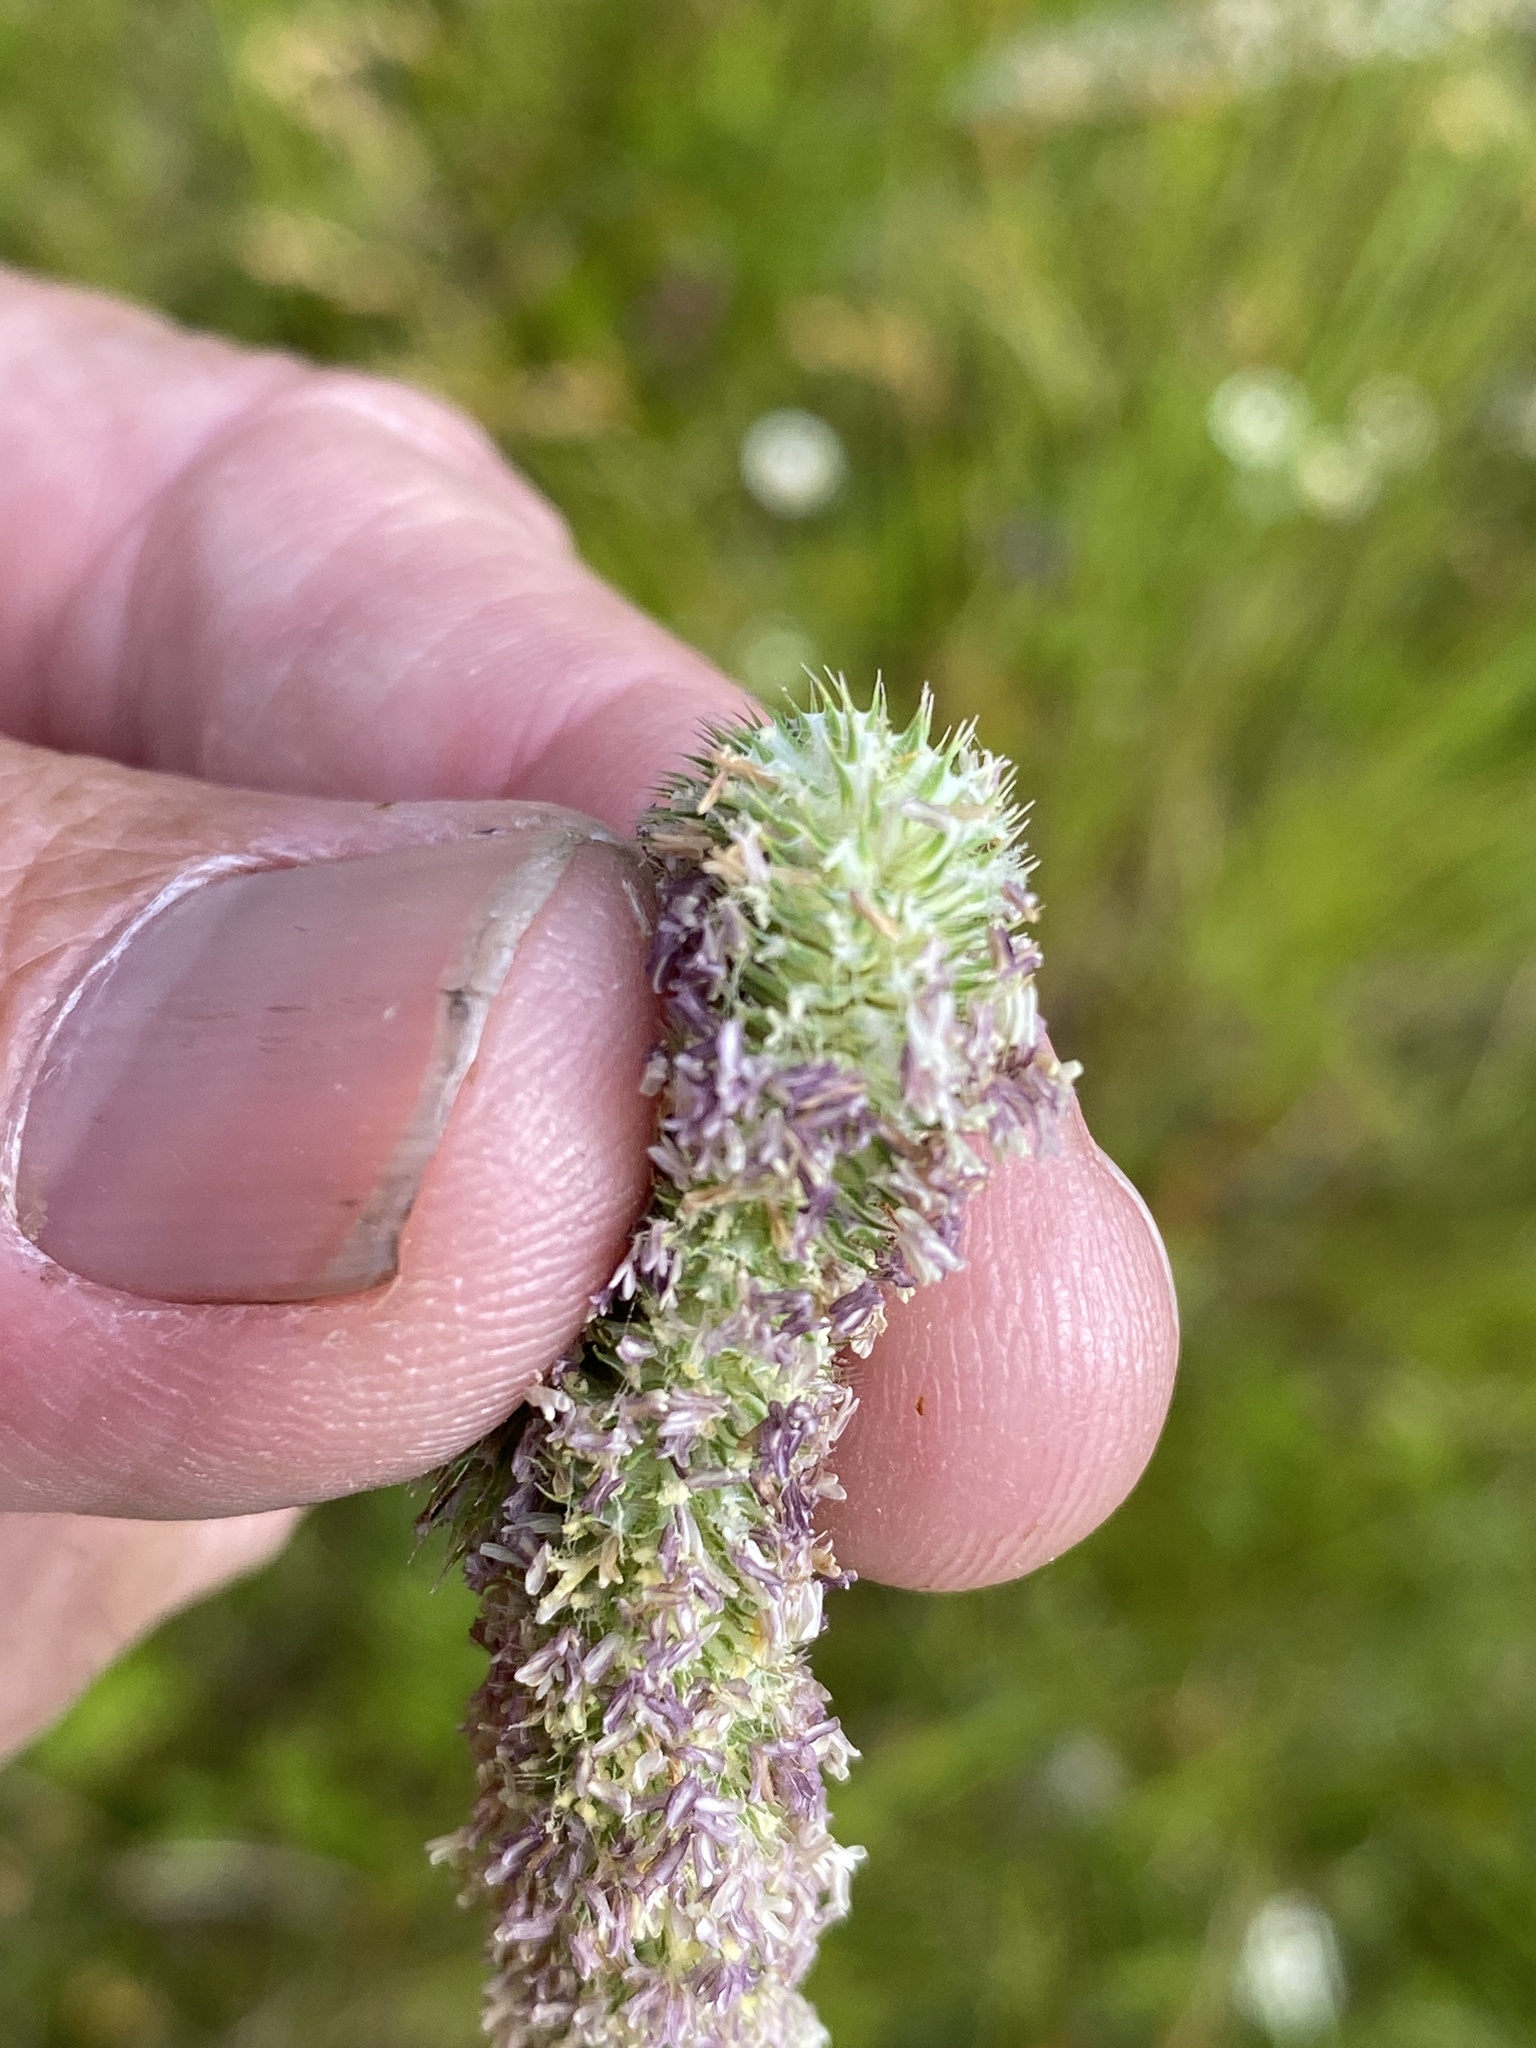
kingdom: Plantae
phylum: Tracheophyta
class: Liliopsida
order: Poales
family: Poaceae
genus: Phleum
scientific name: Phleum pratense
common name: Timothy grass
